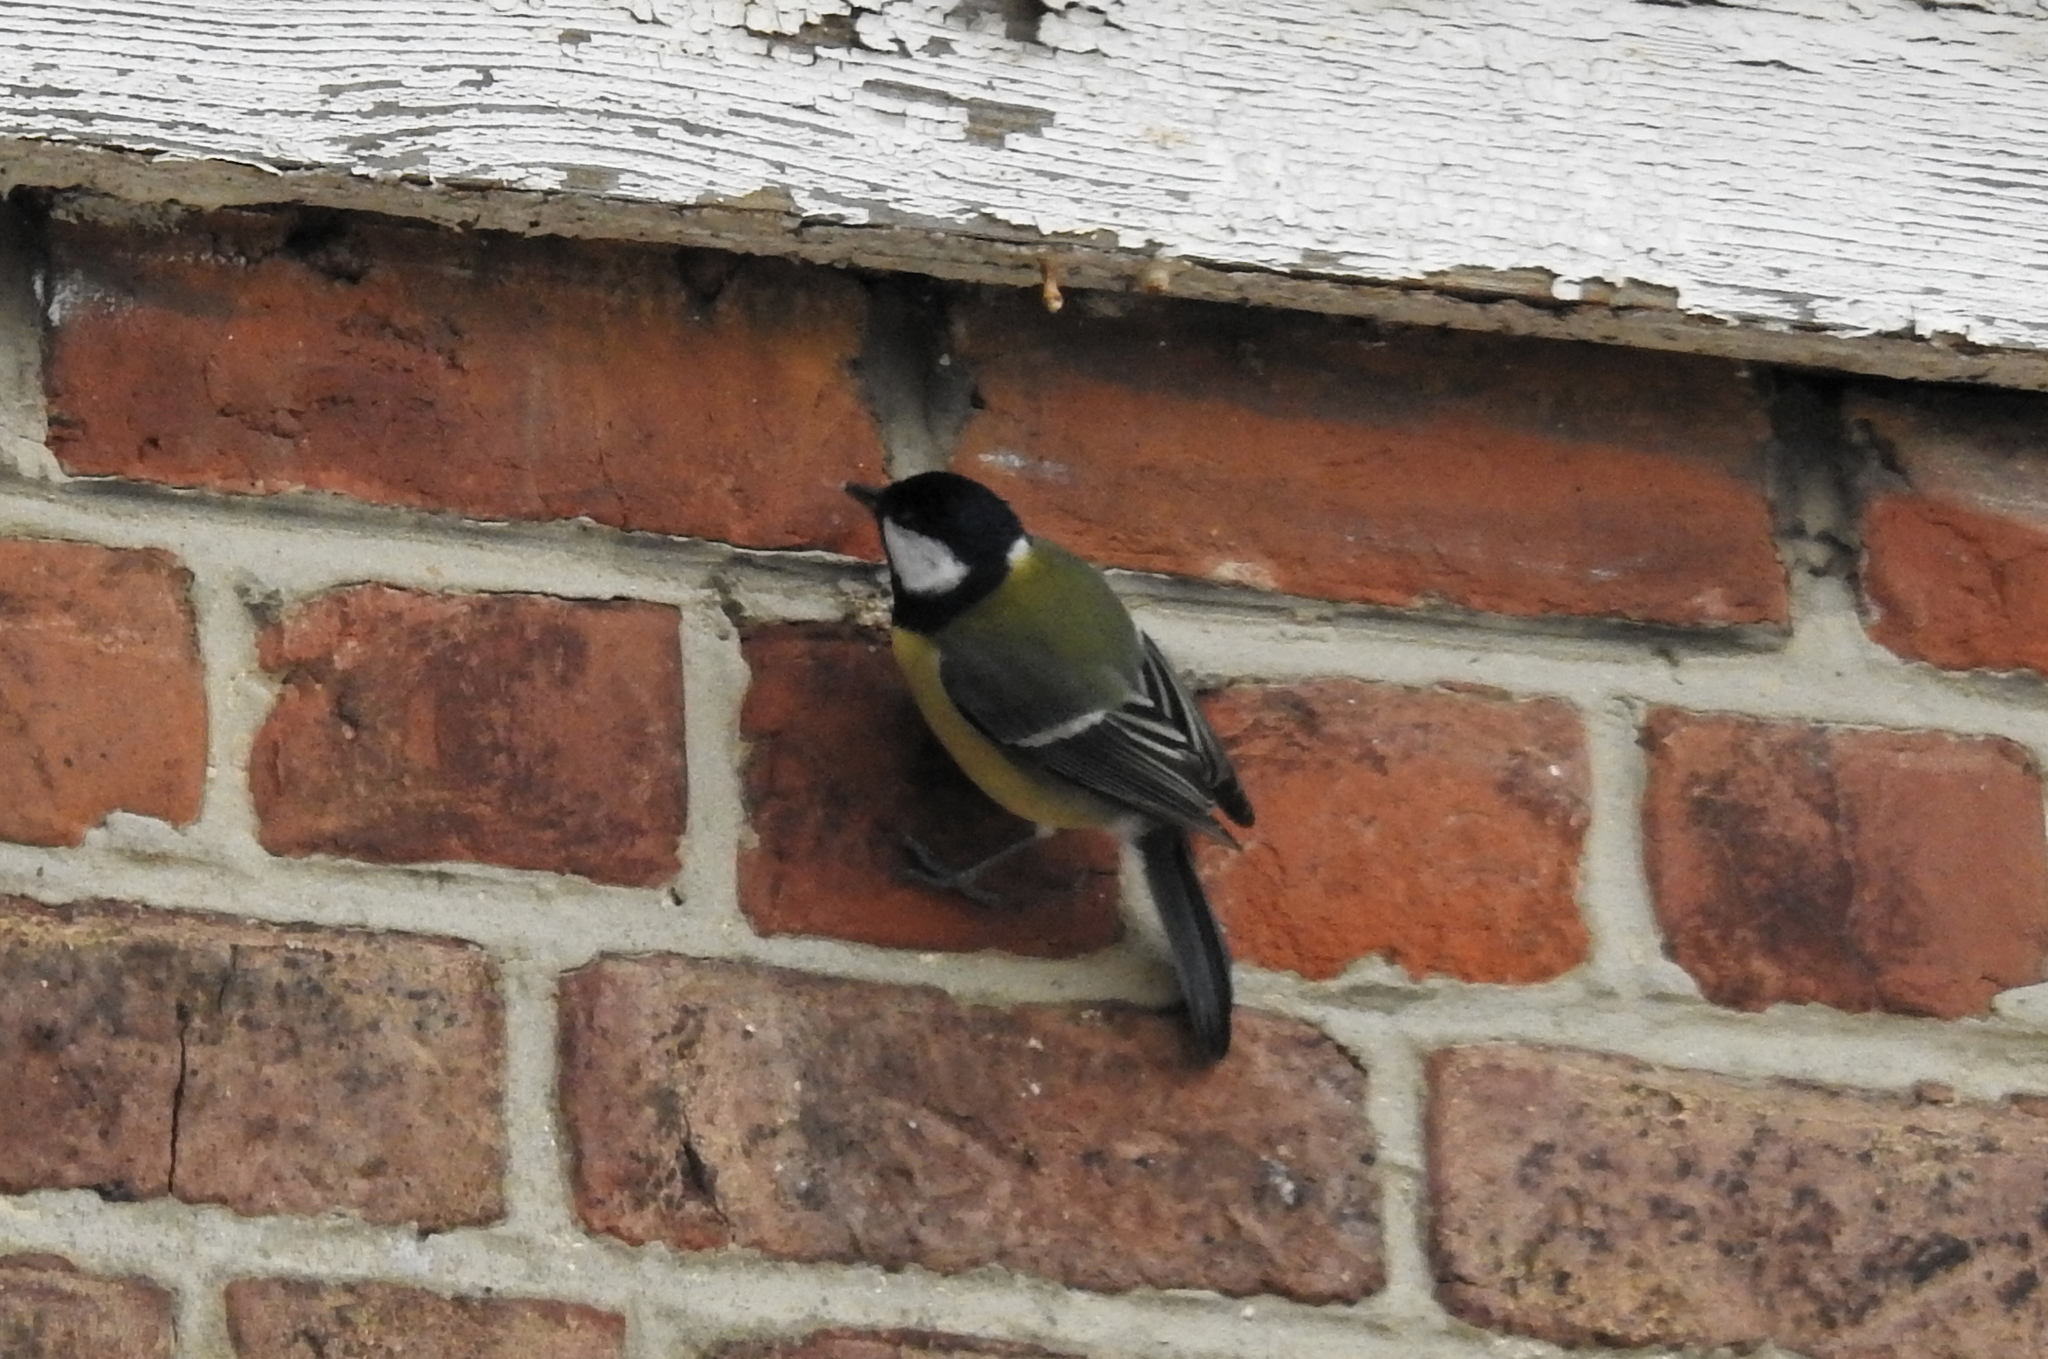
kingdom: Animalia
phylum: Chordata
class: Aves
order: Passeriformes
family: Paridae
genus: Parus
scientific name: Parus major
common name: Great tit
